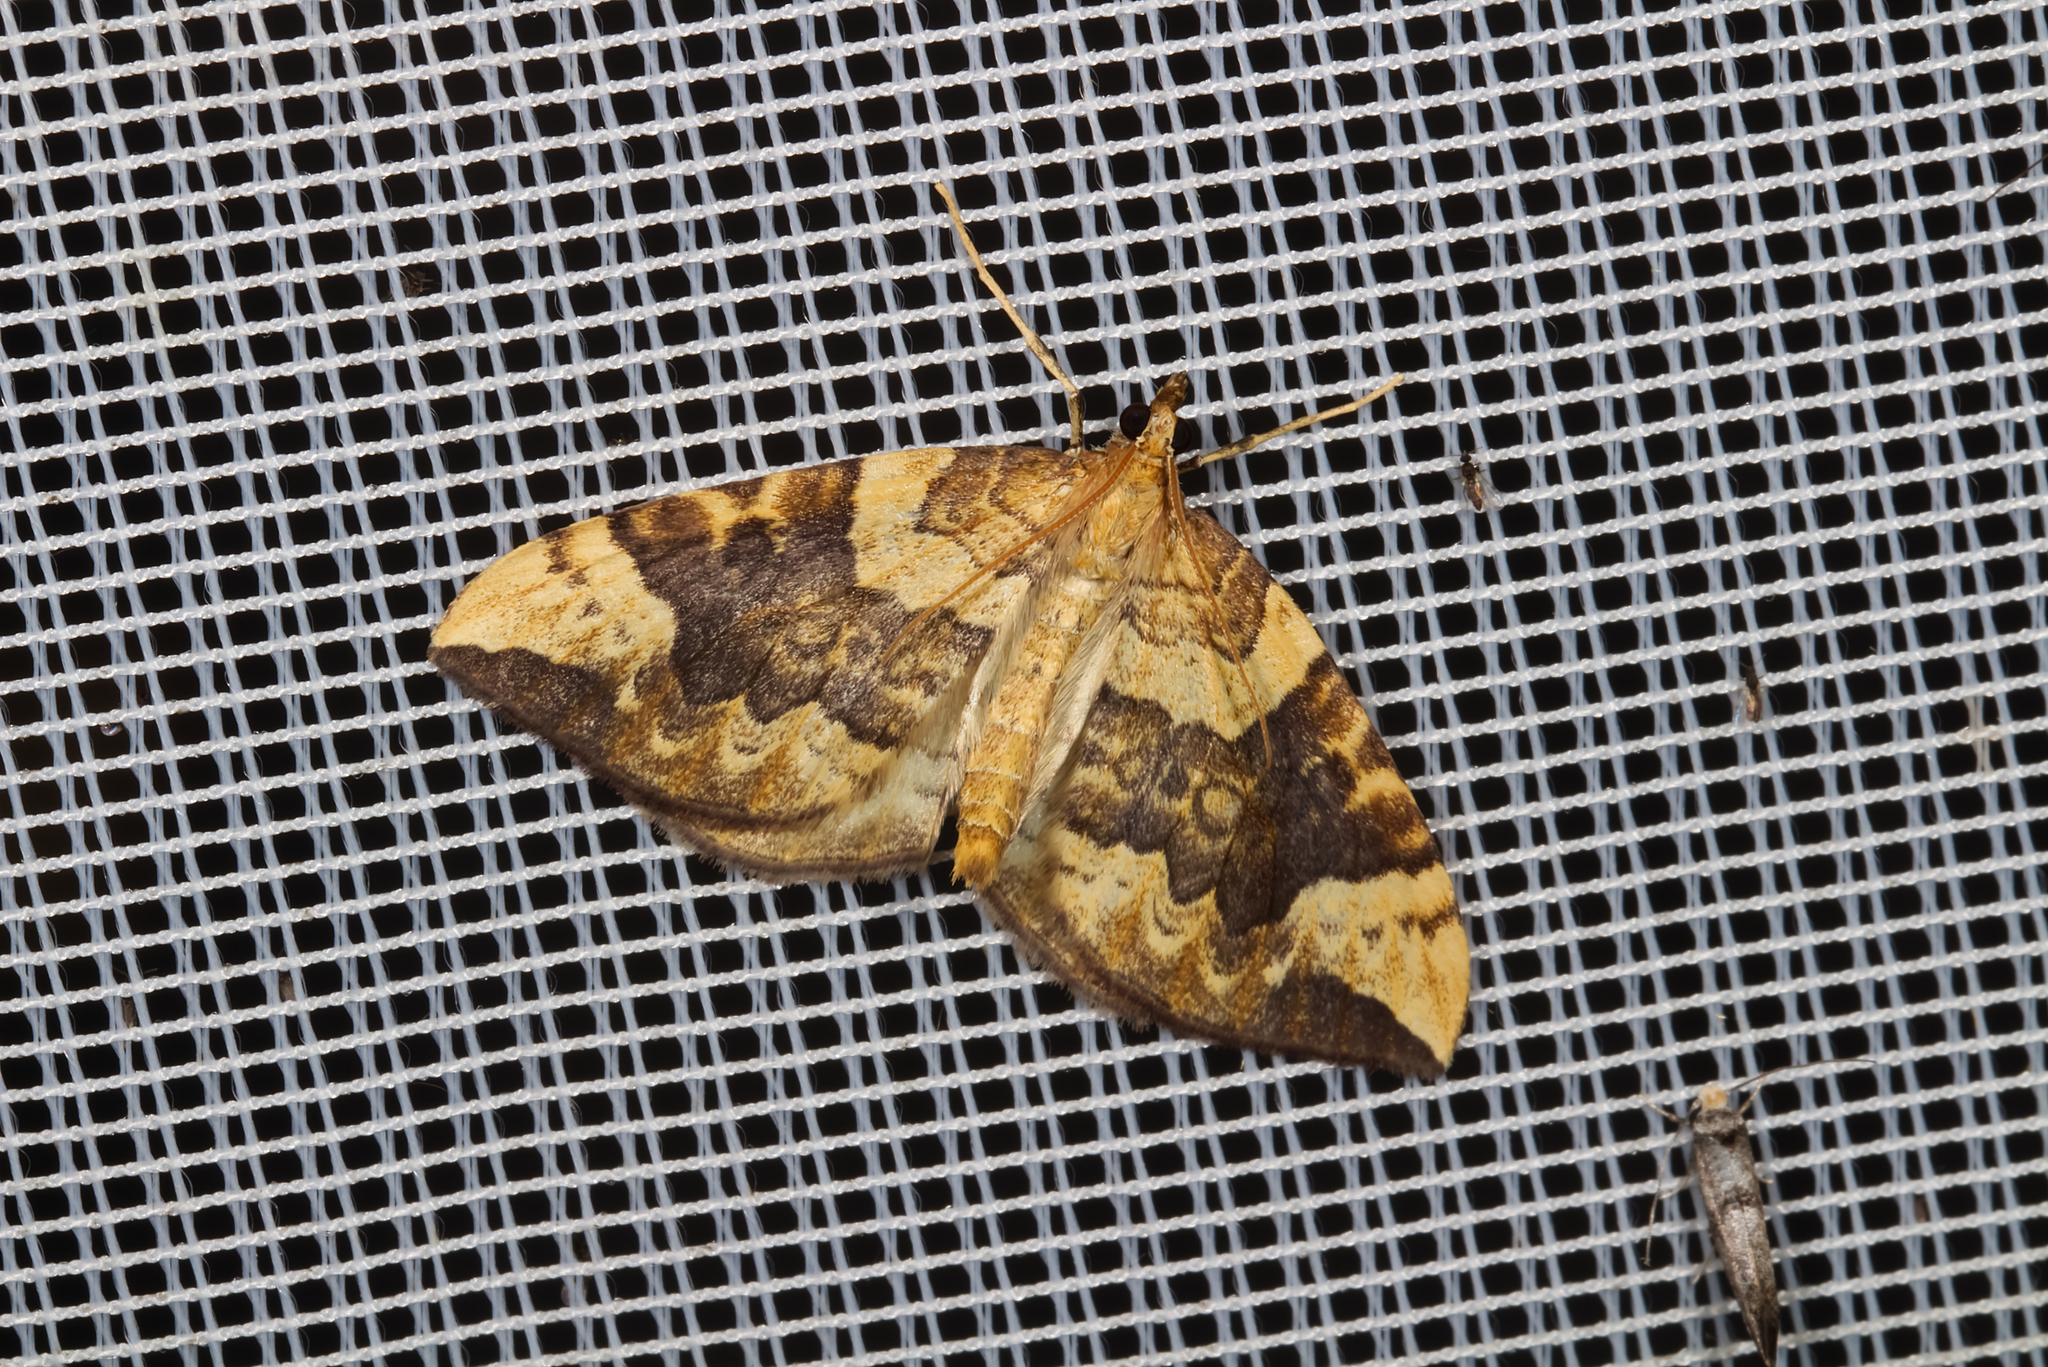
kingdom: Animalia
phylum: Arthropoda
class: Insecta
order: Lepidoptera
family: Geometridae
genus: Eulithis
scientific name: Eulithis populata
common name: Northern spinach
